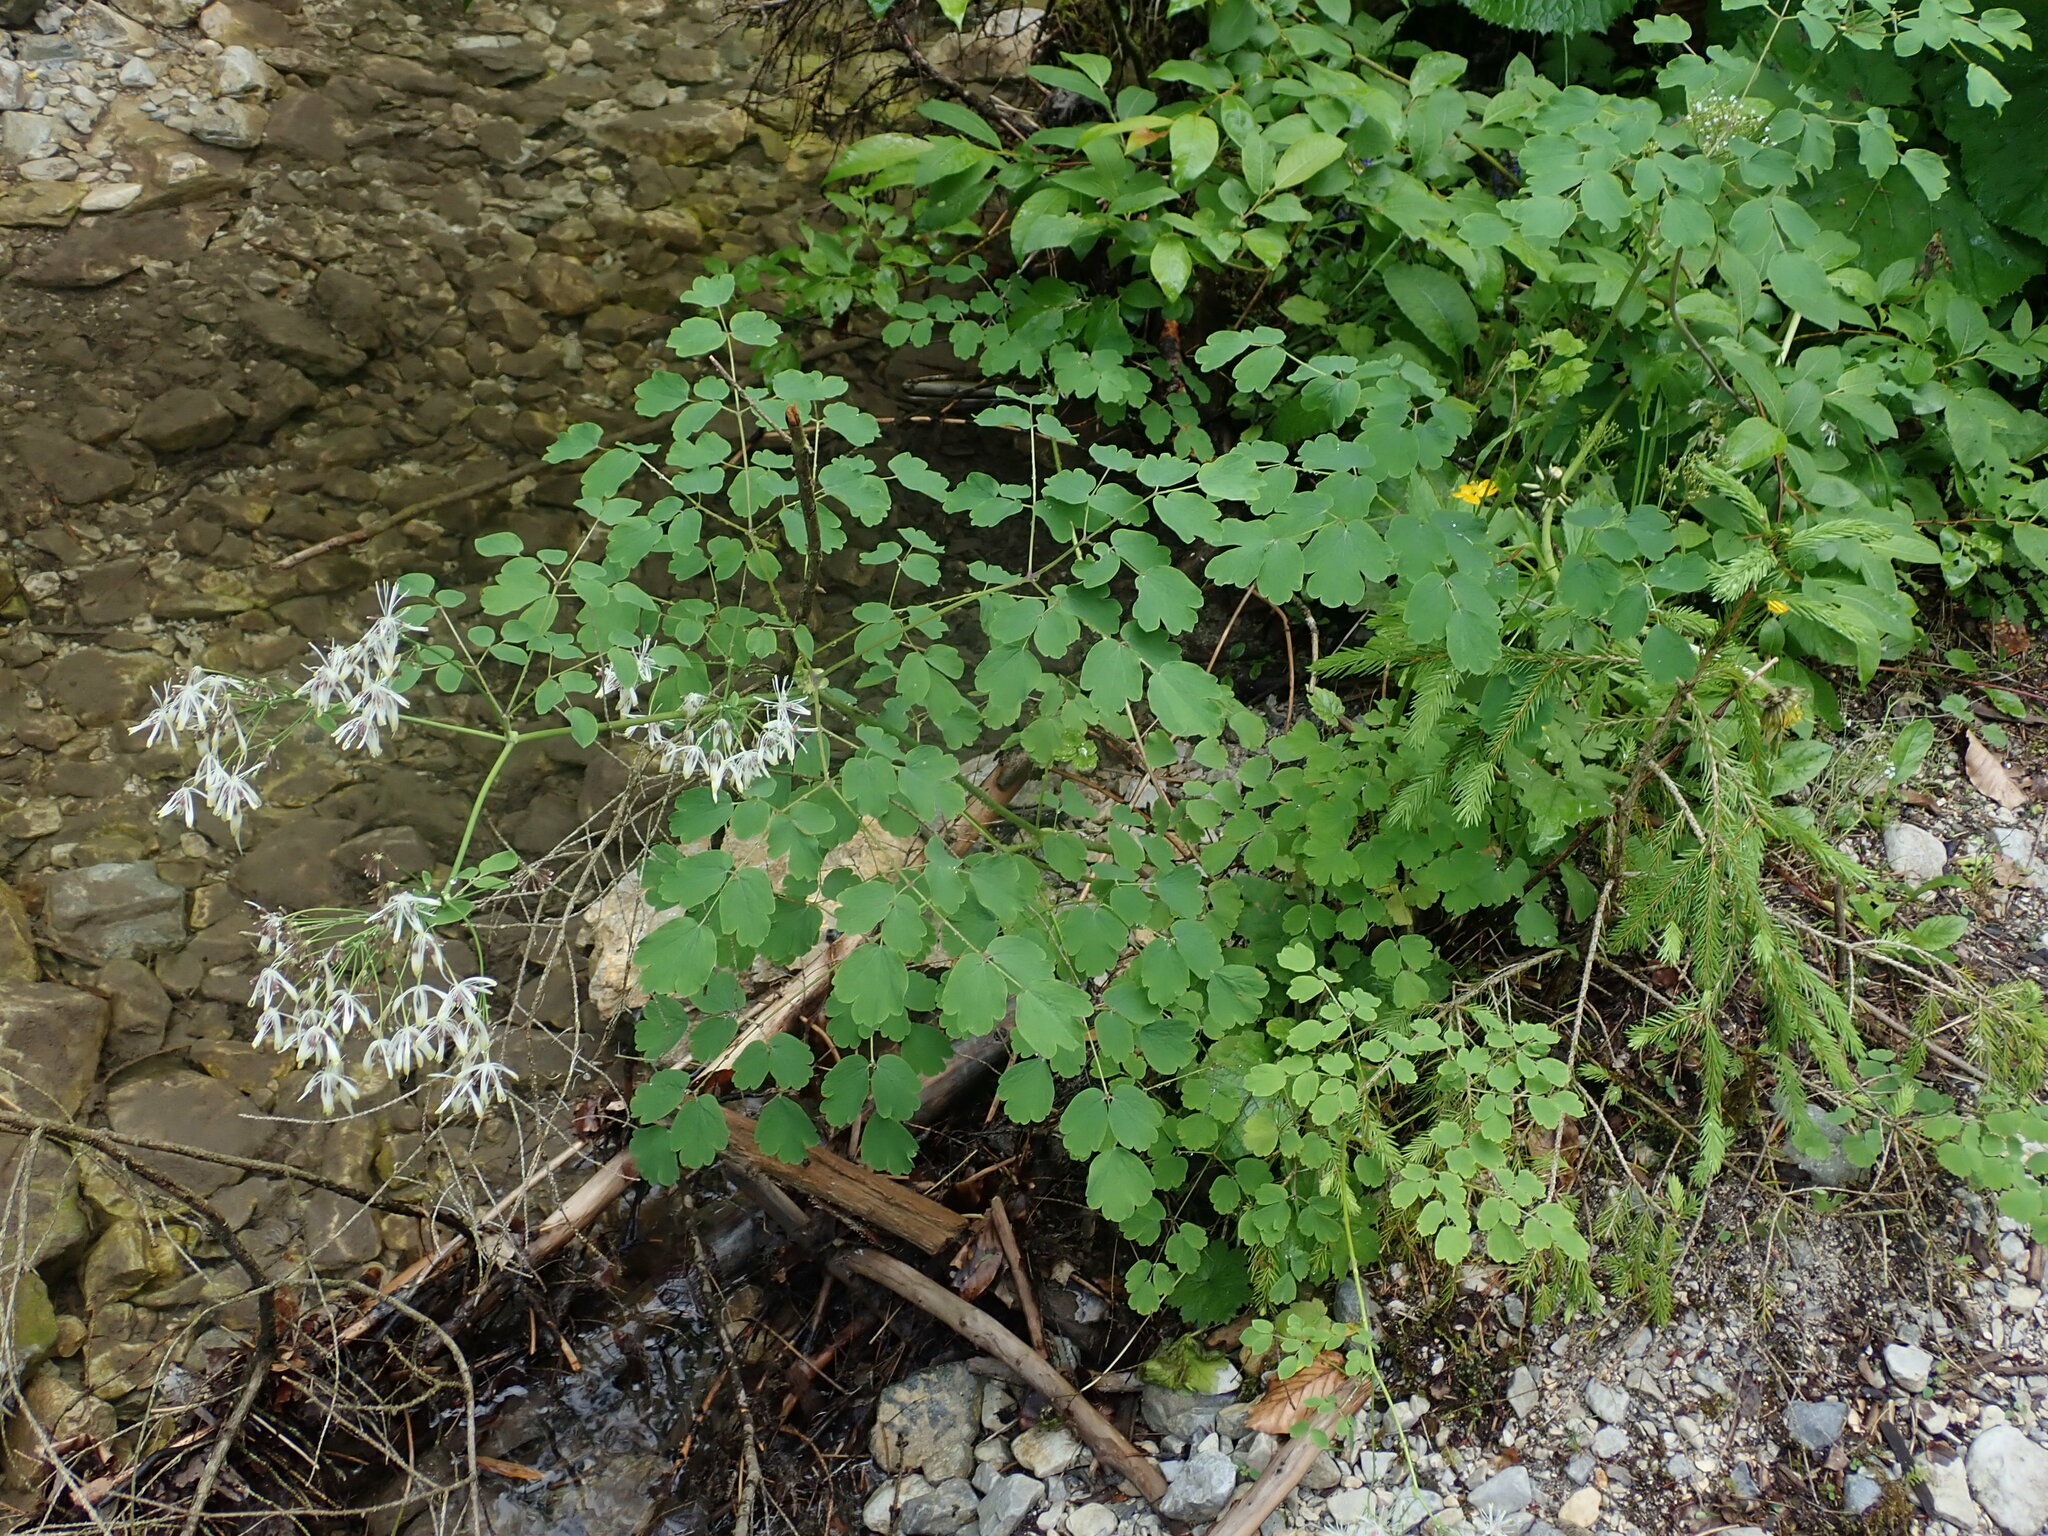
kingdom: Plantae
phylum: Tracheophyta
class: Magnoliopsida
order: Ranunculales
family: Ranunculaceae
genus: Thalictrum
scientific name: Thalictrum aquilegiifolium
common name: French meadow-rue
